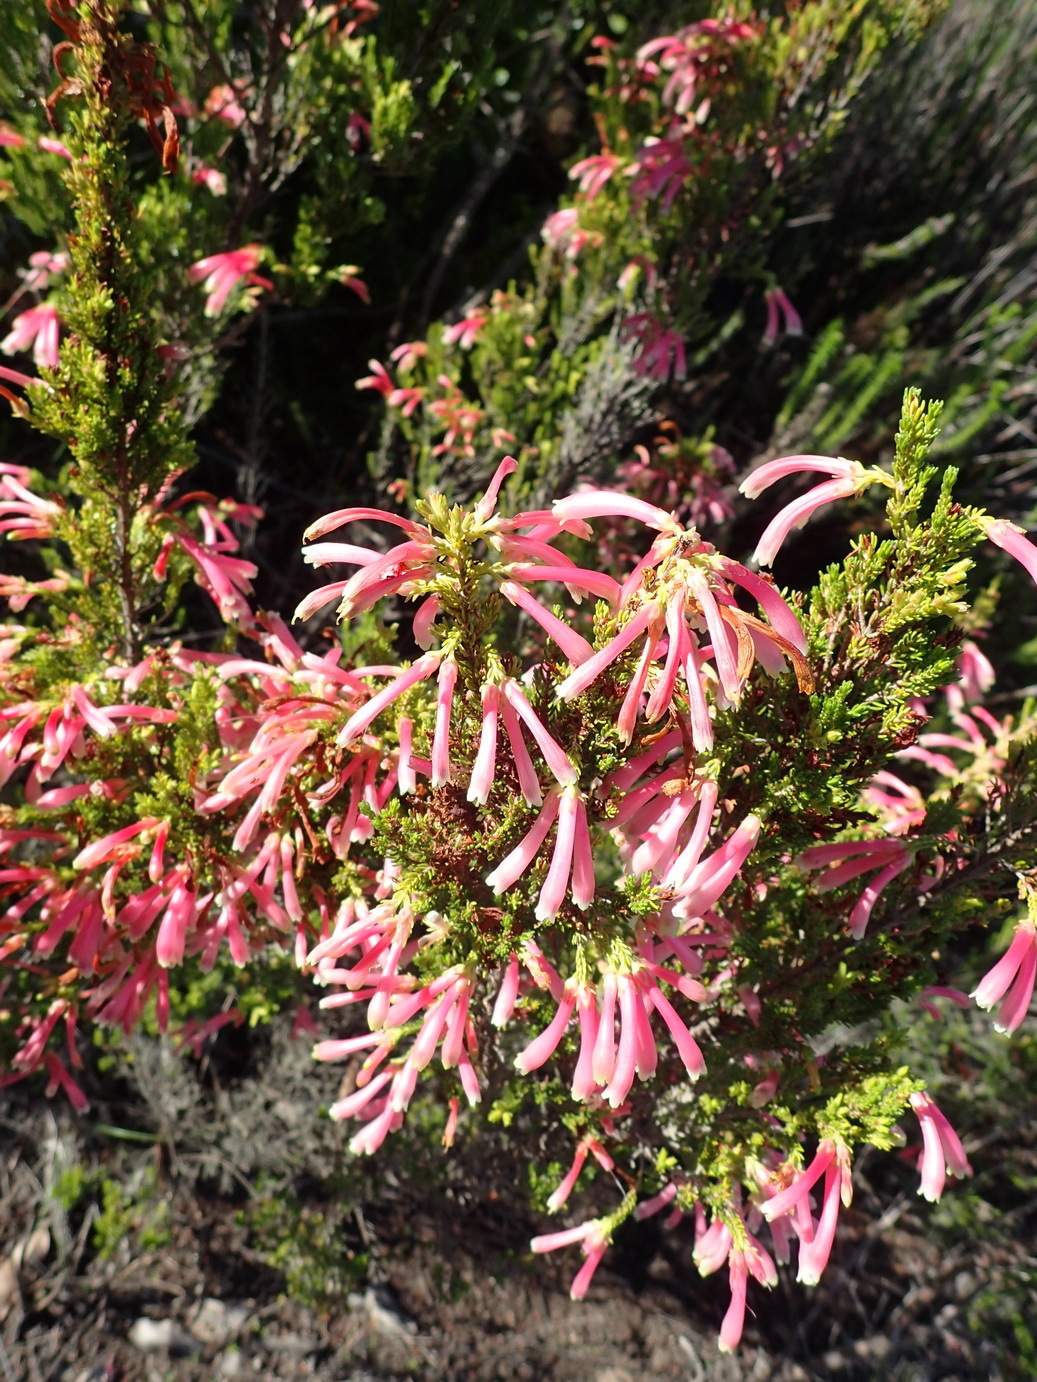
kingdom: Plantae
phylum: Tracheophyta
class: Magnoliopsida
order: Ericales
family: Ericaceae
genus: Erica
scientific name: Erica discolor
